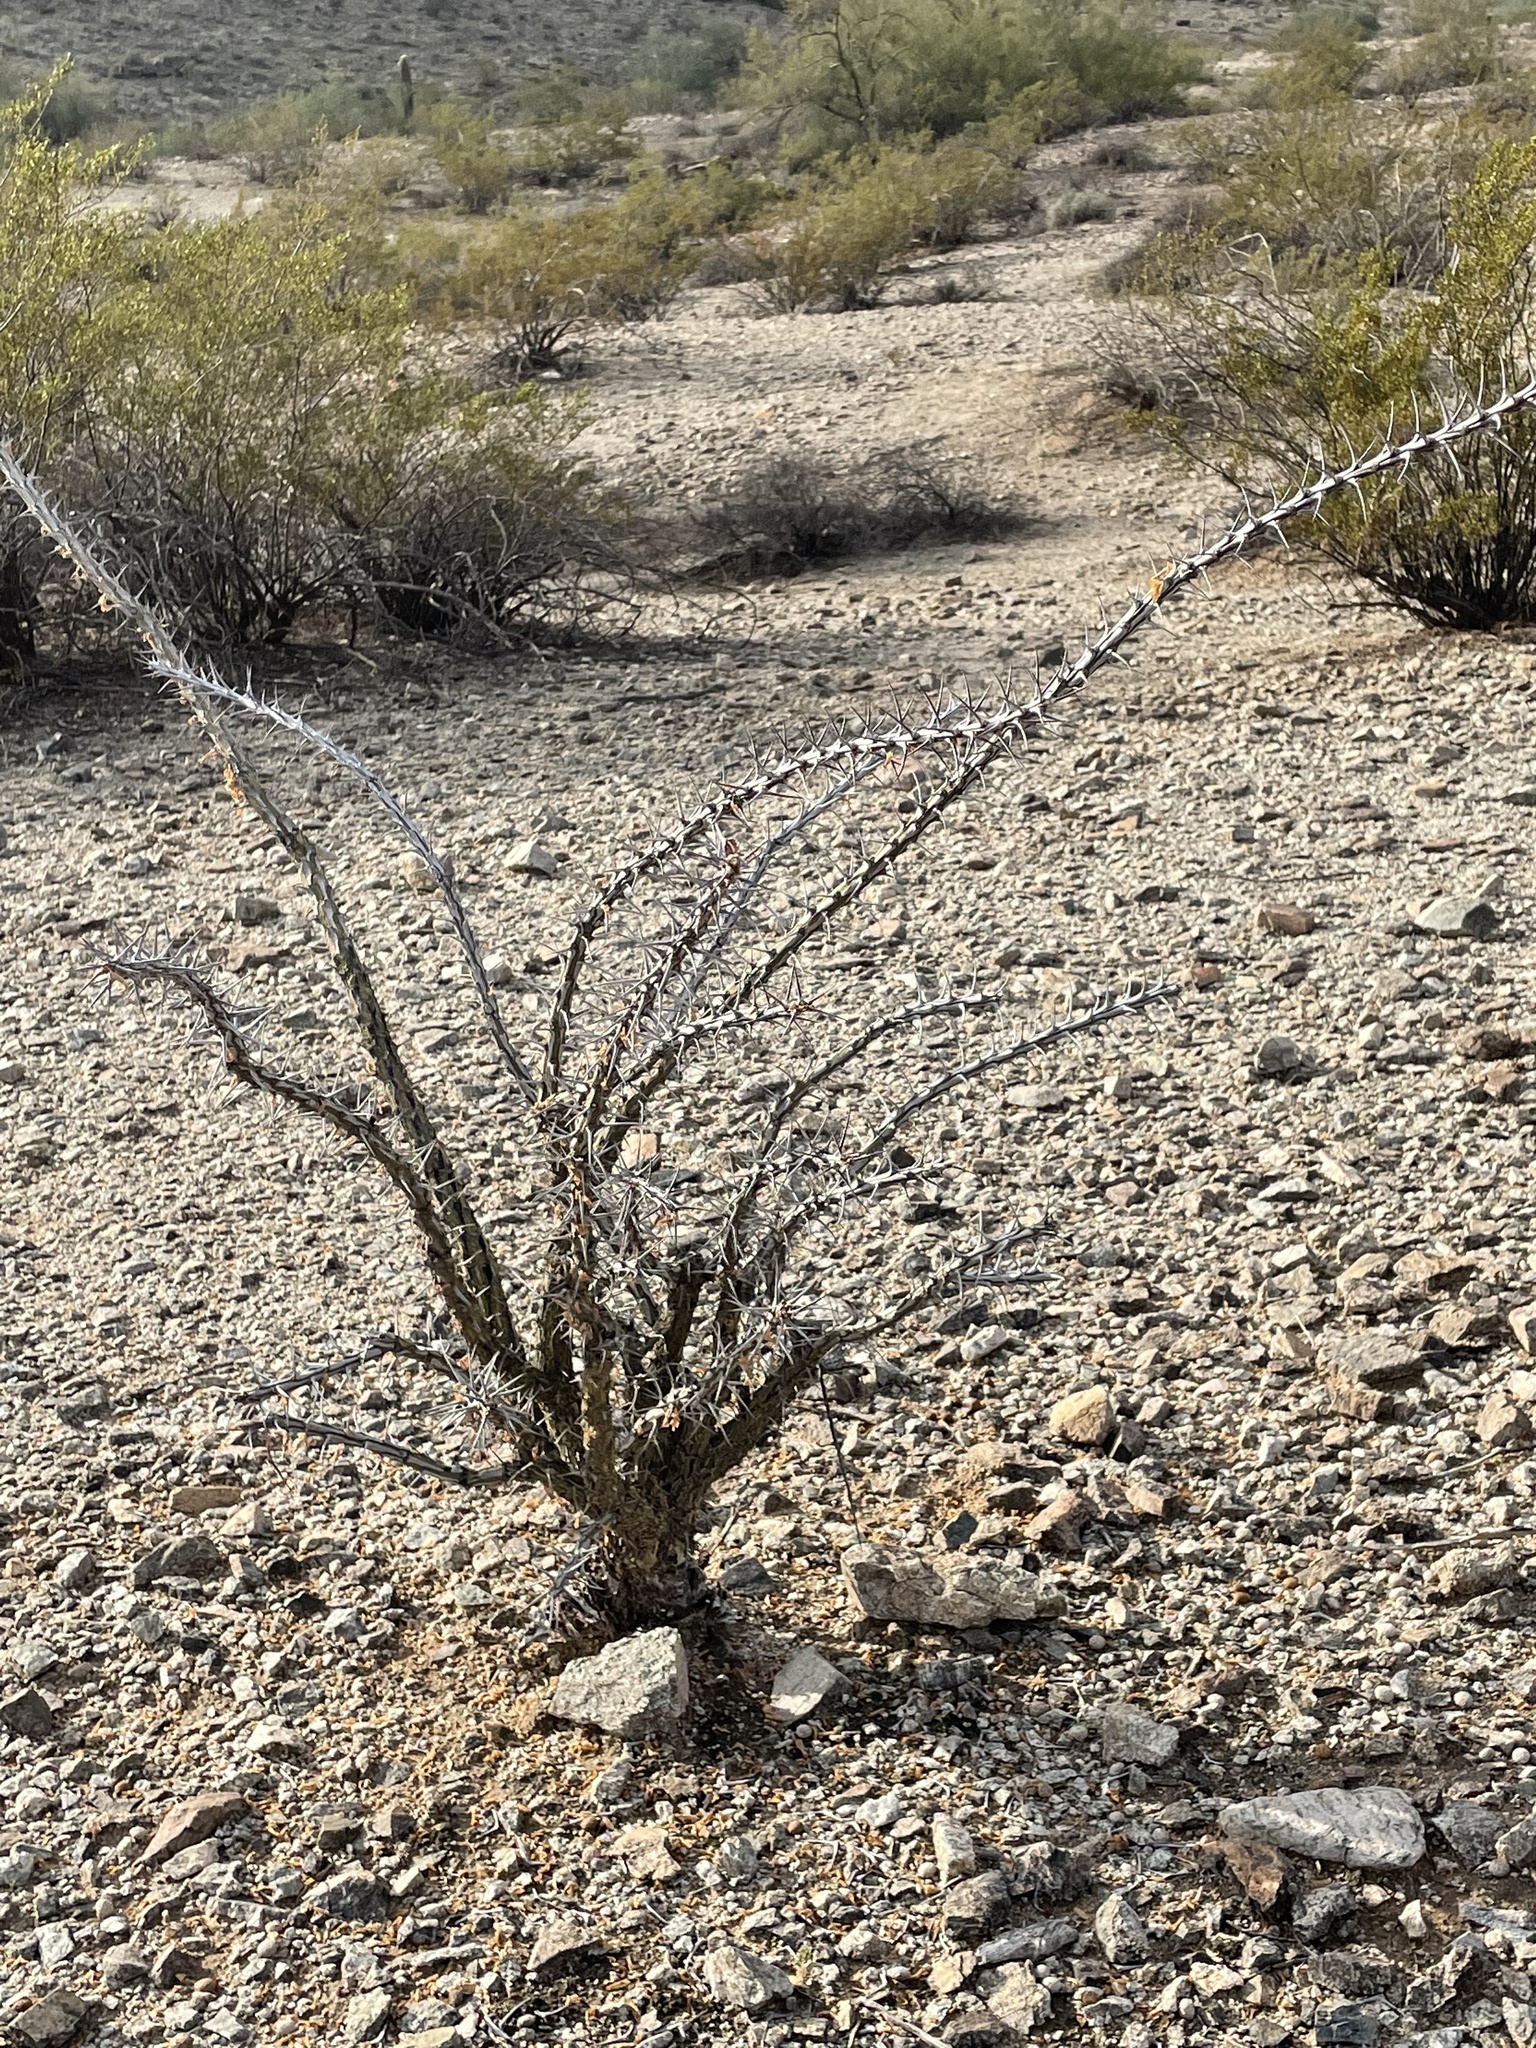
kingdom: Plantae
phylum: Tracheophyta
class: Magnoliopsida
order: Ericales
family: Fouquieriaceae
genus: Fouquieria
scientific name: Fouquieria splendens
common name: Vine-cactus
